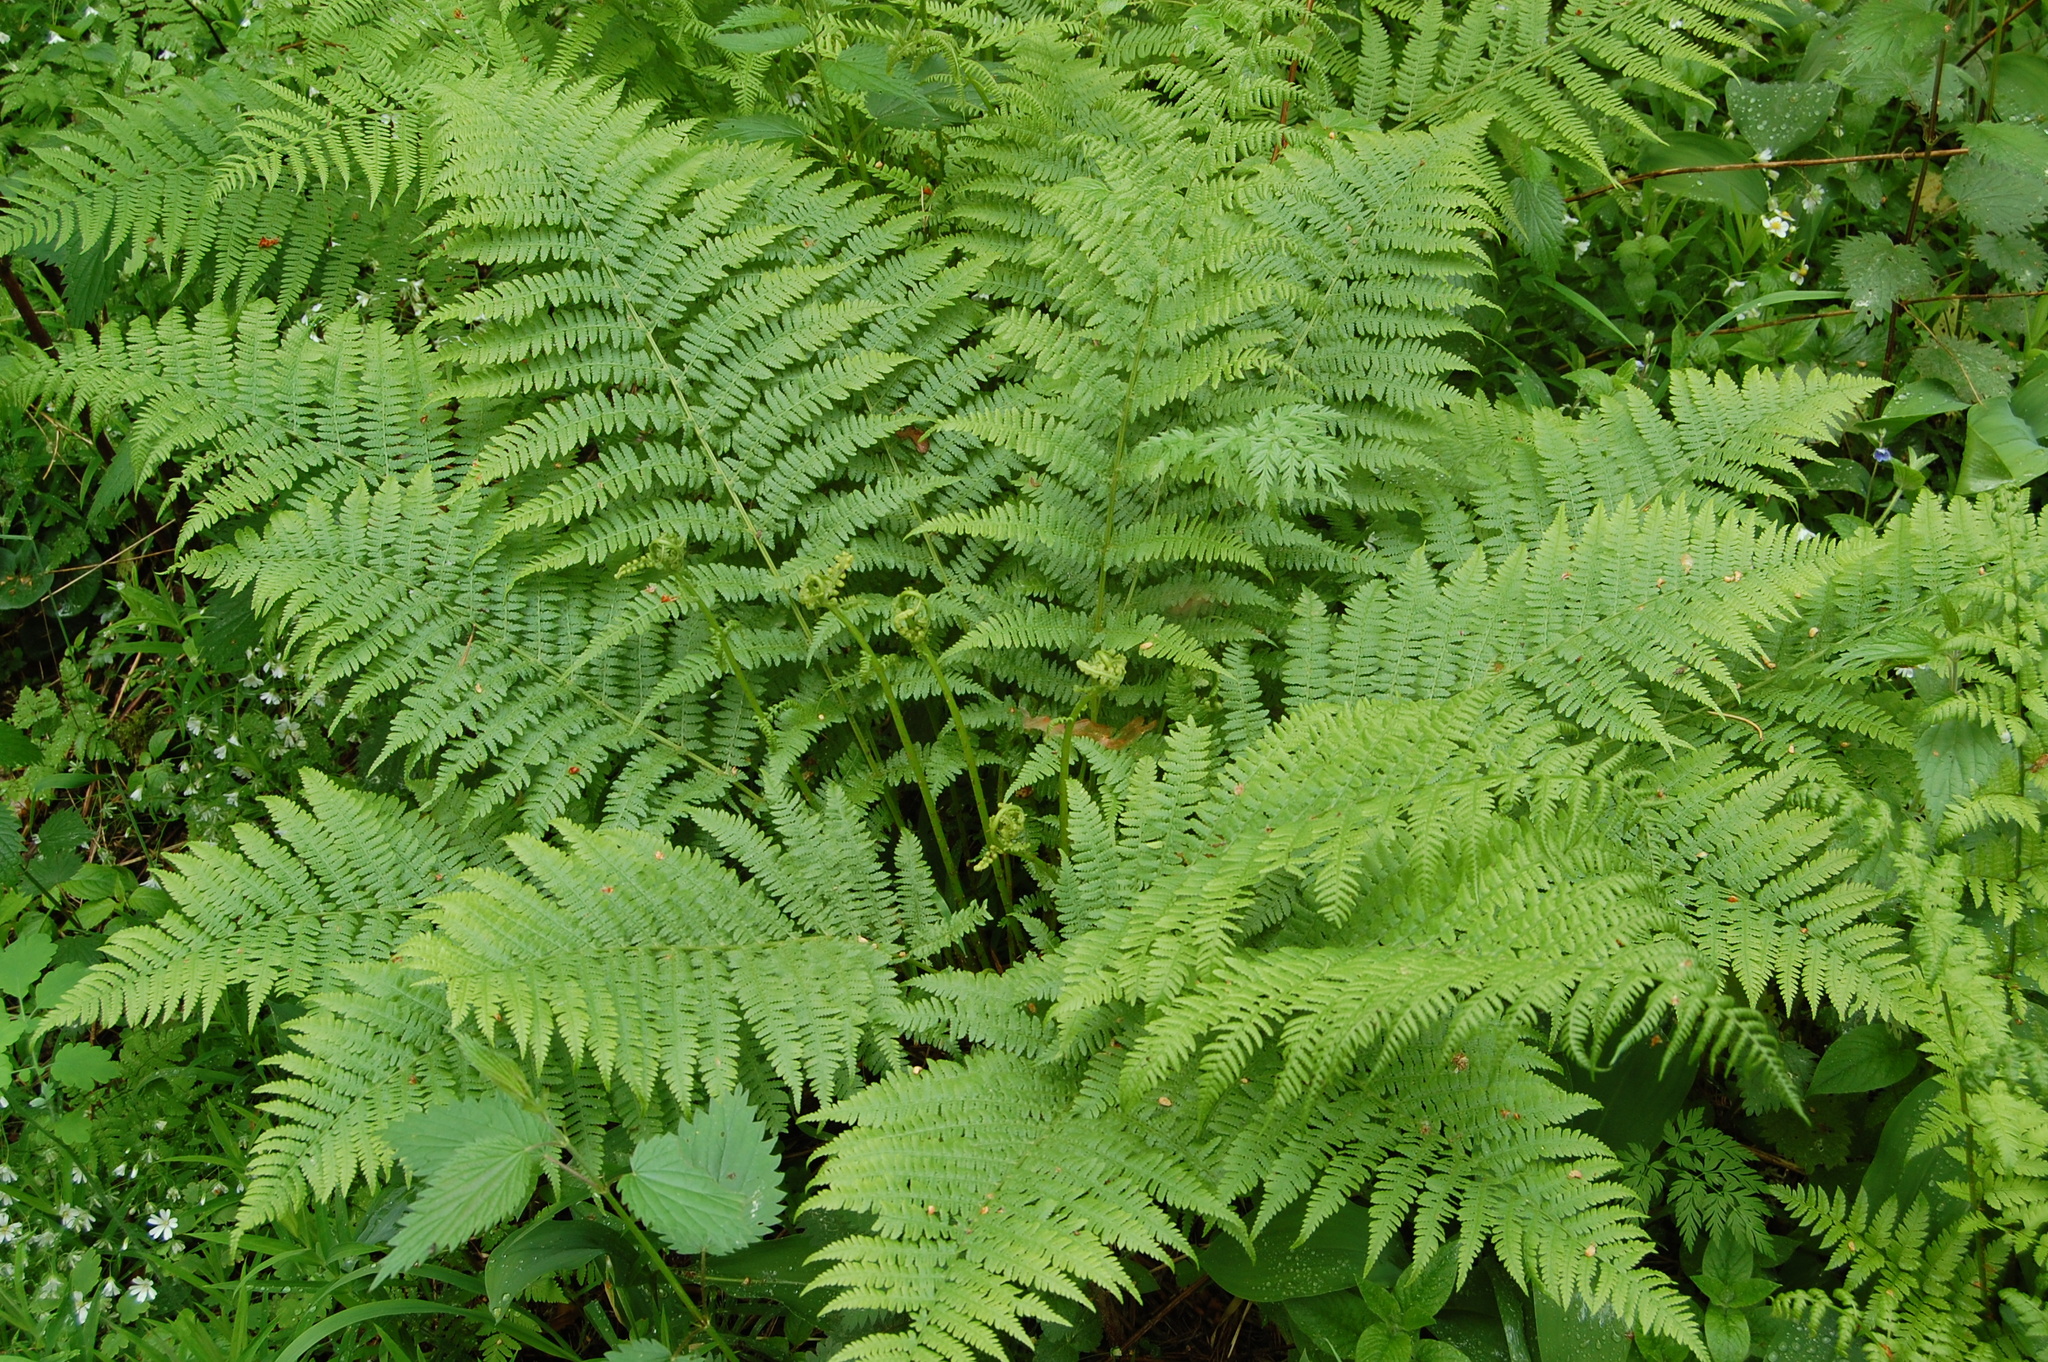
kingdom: Plantae
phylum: Tracheophyta
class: Polypodiopsida
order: Polypodiales
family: Athyriaceae
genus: Athyrium
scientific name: Athyrium filix-femina
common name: Lady fern
